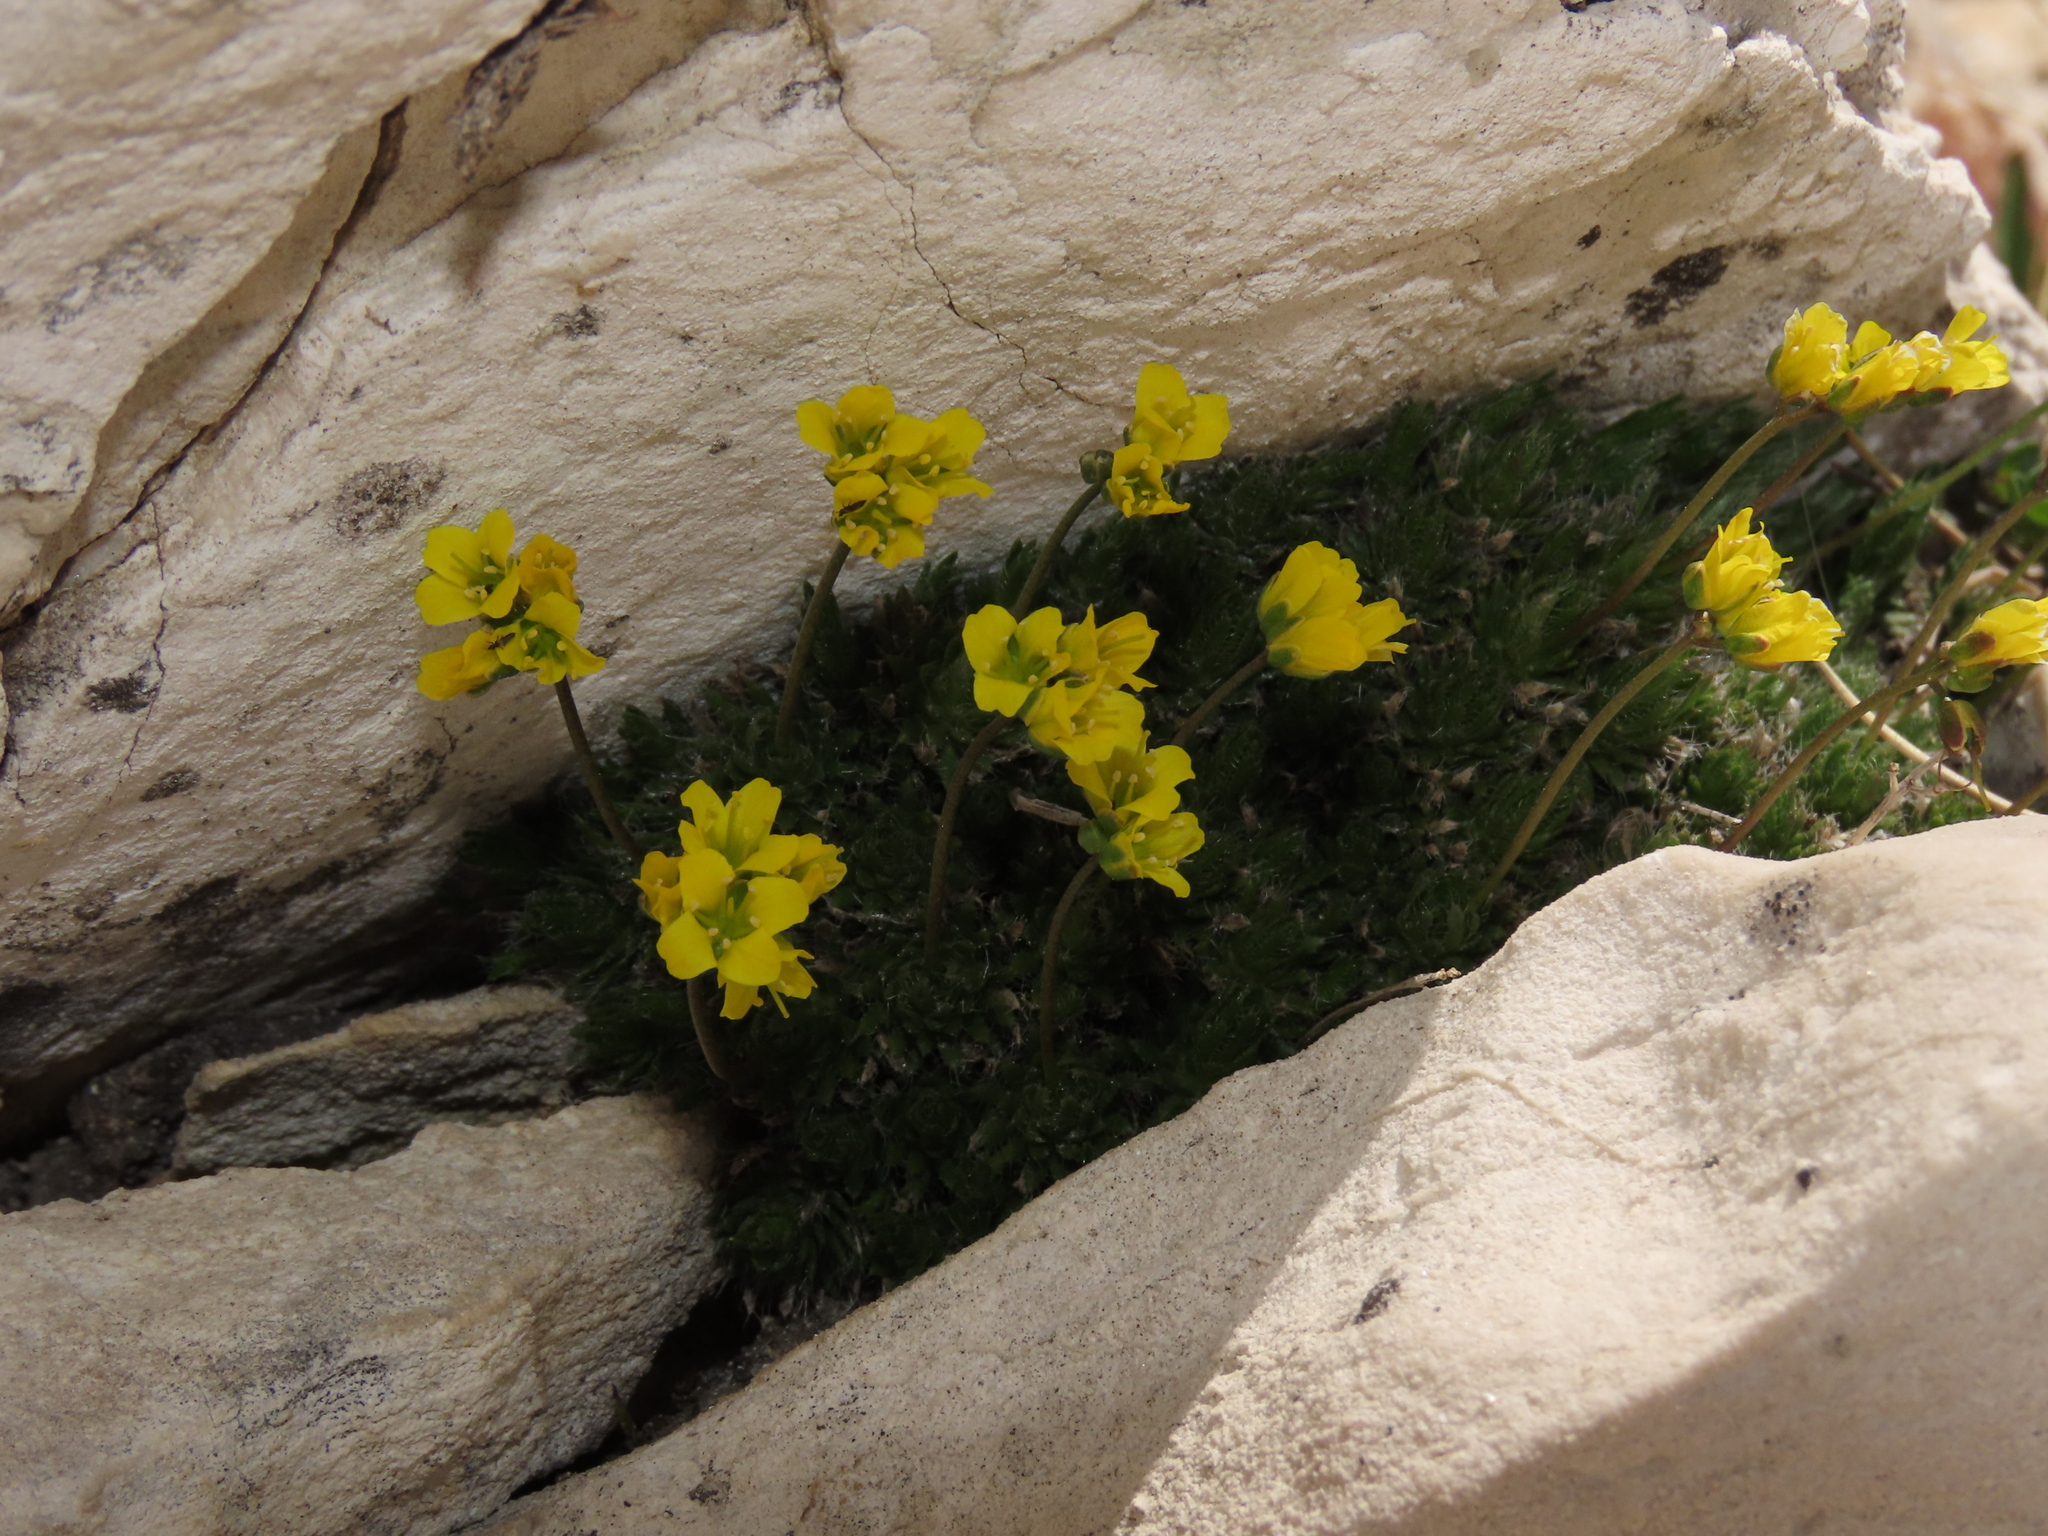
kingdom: Plantae
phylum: Tracheophyta
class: Magnoliopsida
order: Brassicales
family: Brassicaceae
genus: Draba
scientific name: Draba aizoides
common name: Yellow whitlowgrass
